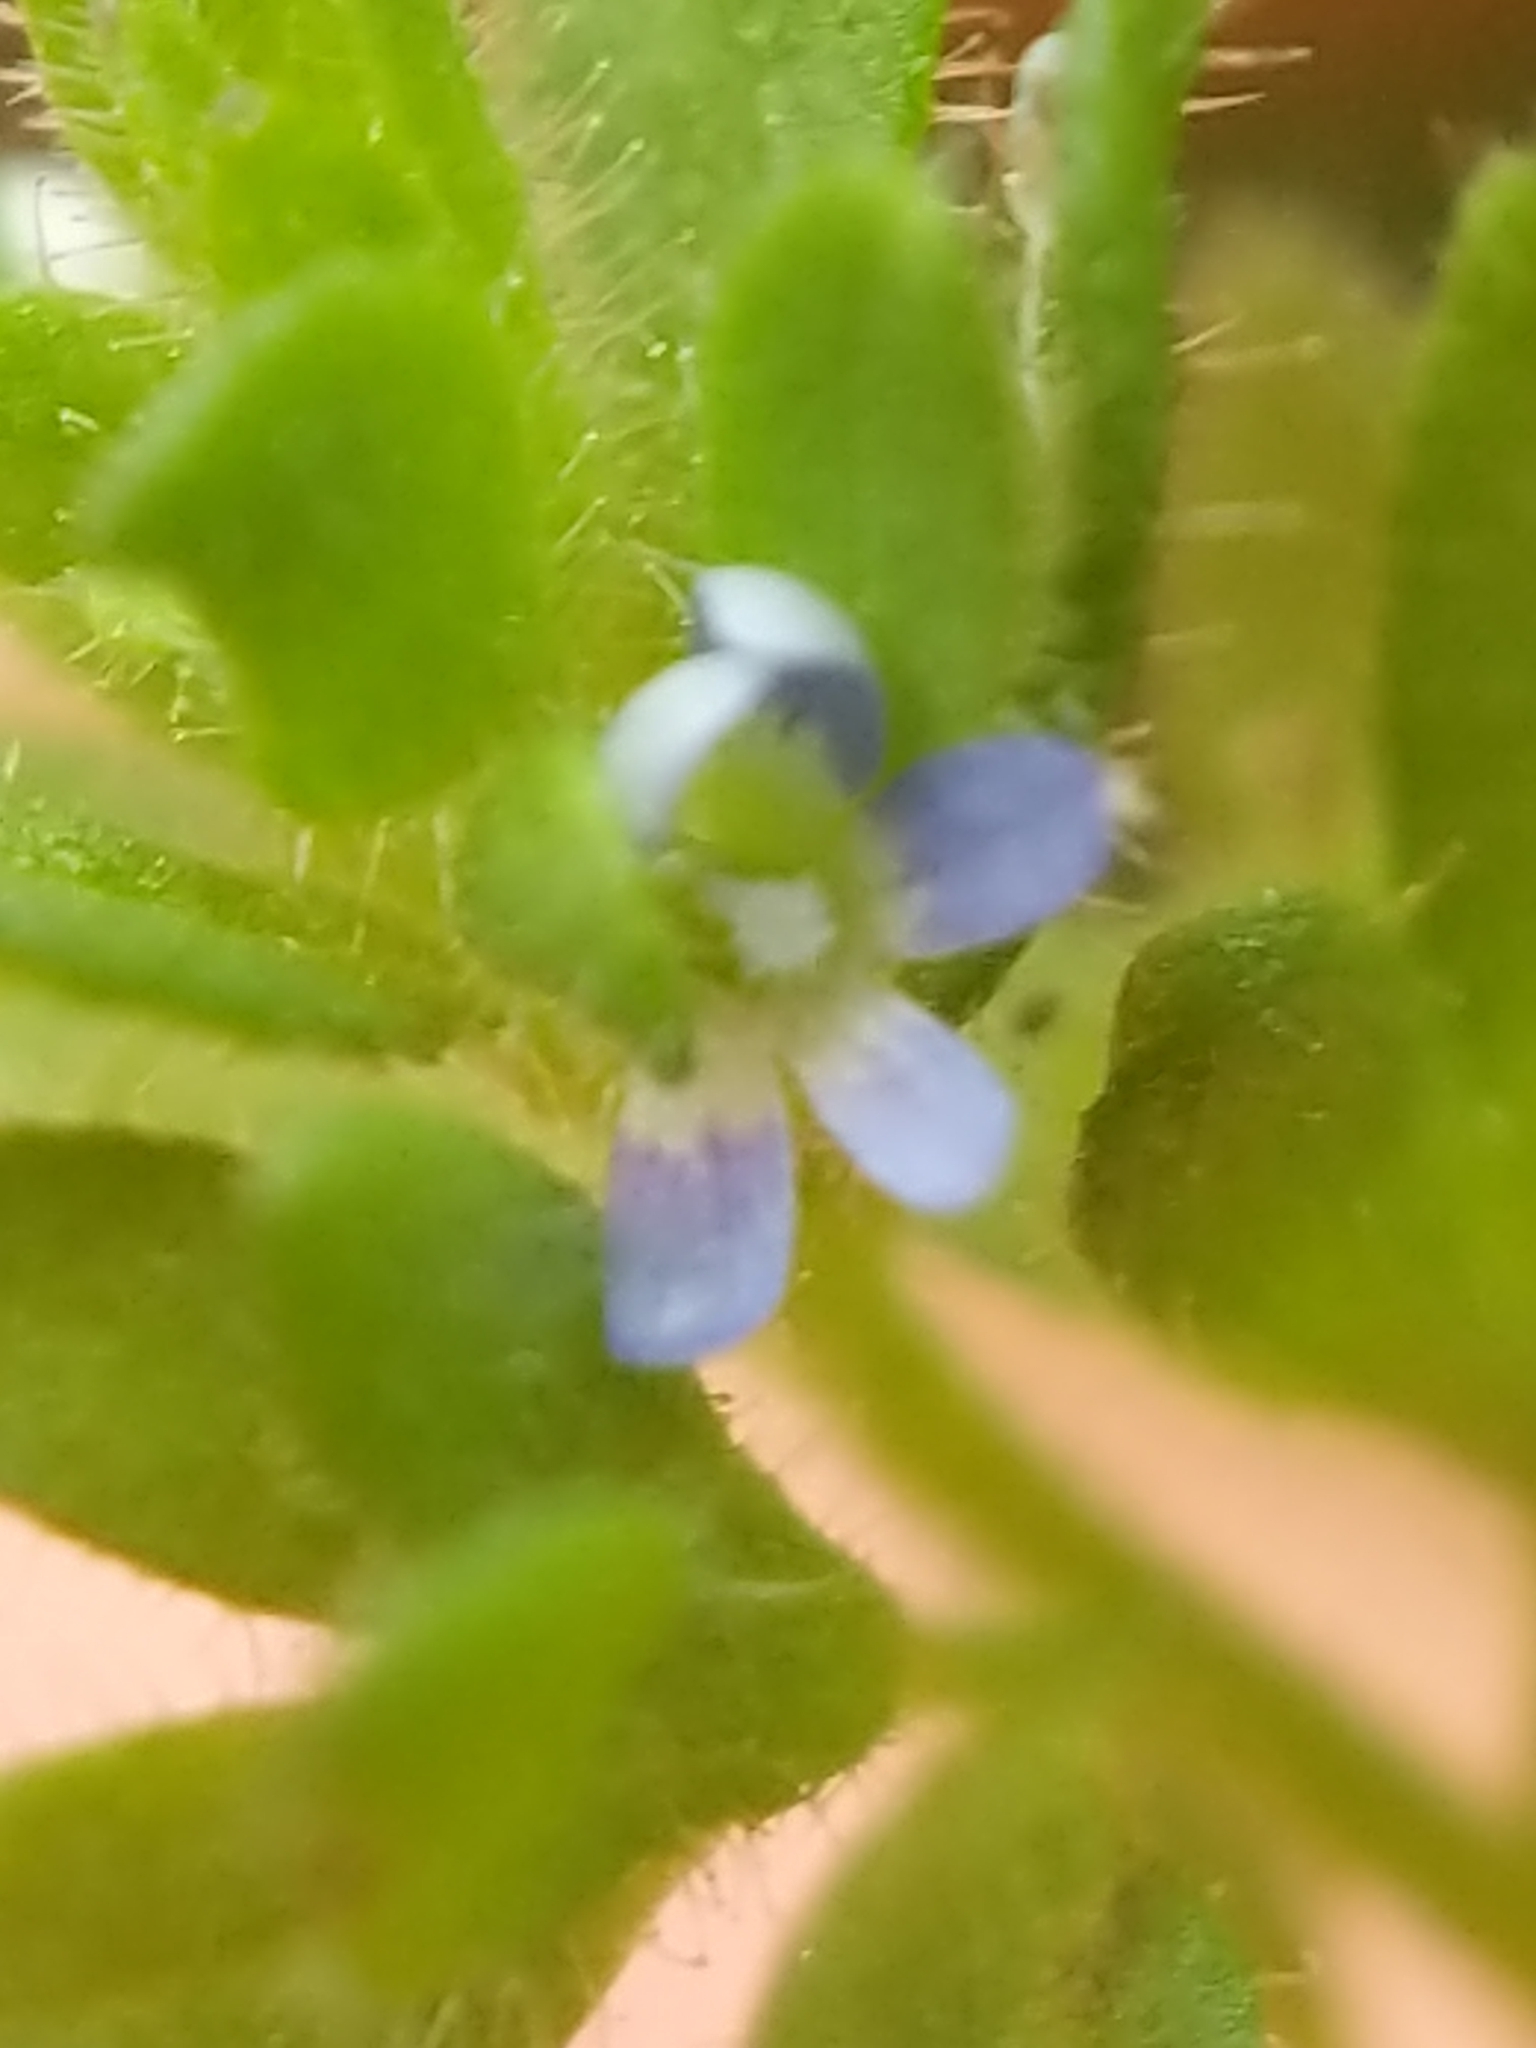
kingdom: Plantae
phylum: Tracheophyta
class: Magnoliopsida
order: Lamiales
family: Plantaginaceae
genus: Veronica
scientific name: Veronica arvensis
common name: Corn speedwell
